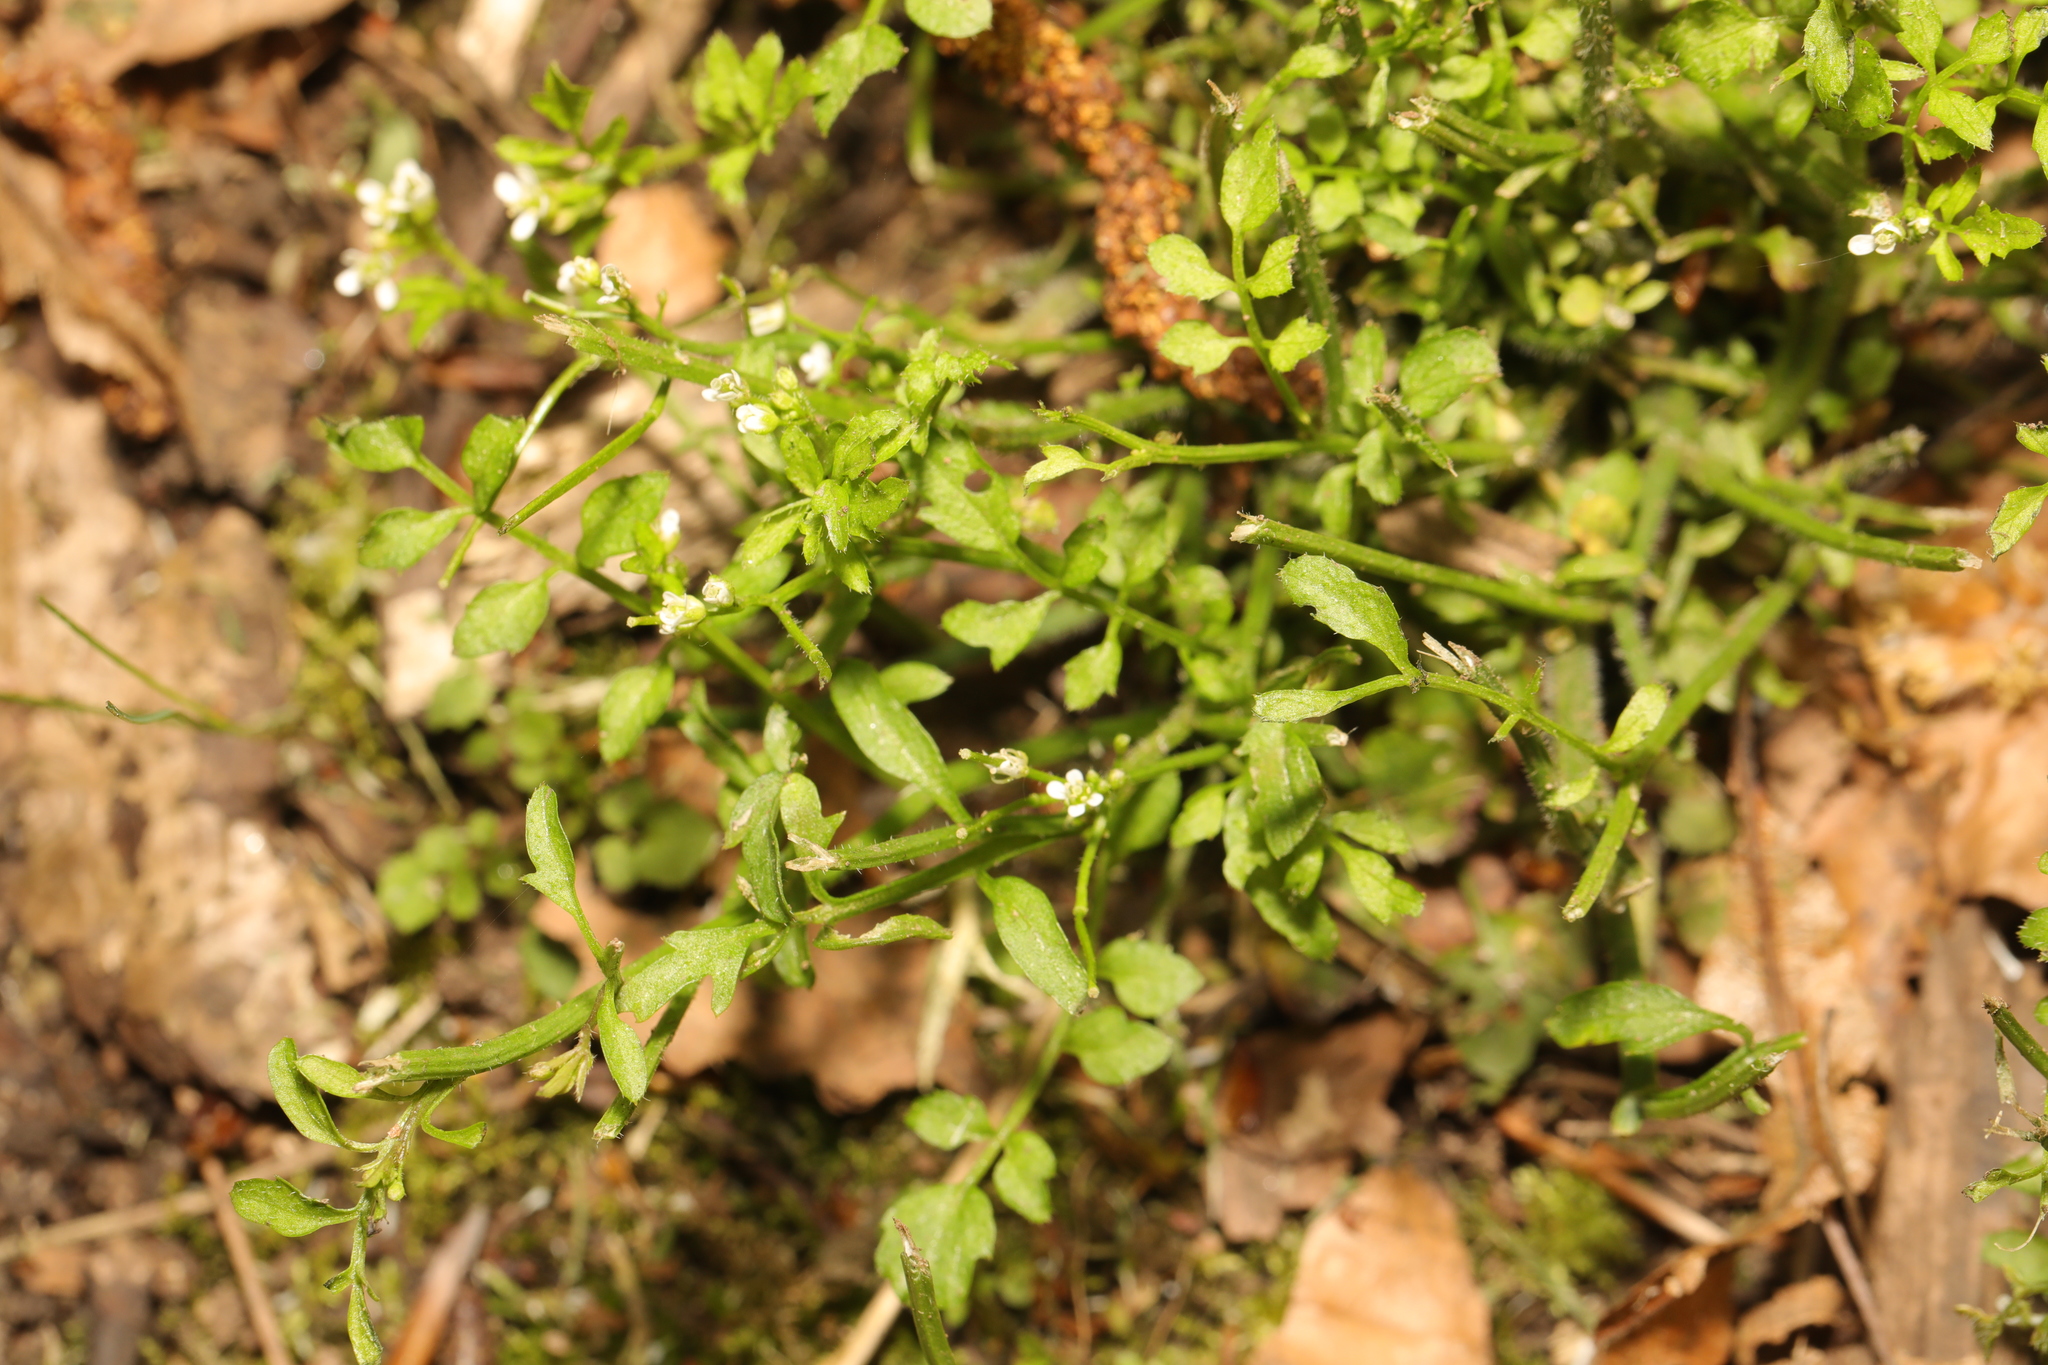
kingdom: Plantae
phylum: Tracheophyta
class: Magnoliopsida
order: Brassicales
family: Brassicaceae
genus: Cardamine
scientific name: Cardamine flexuosa
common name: Woodland bittercress
